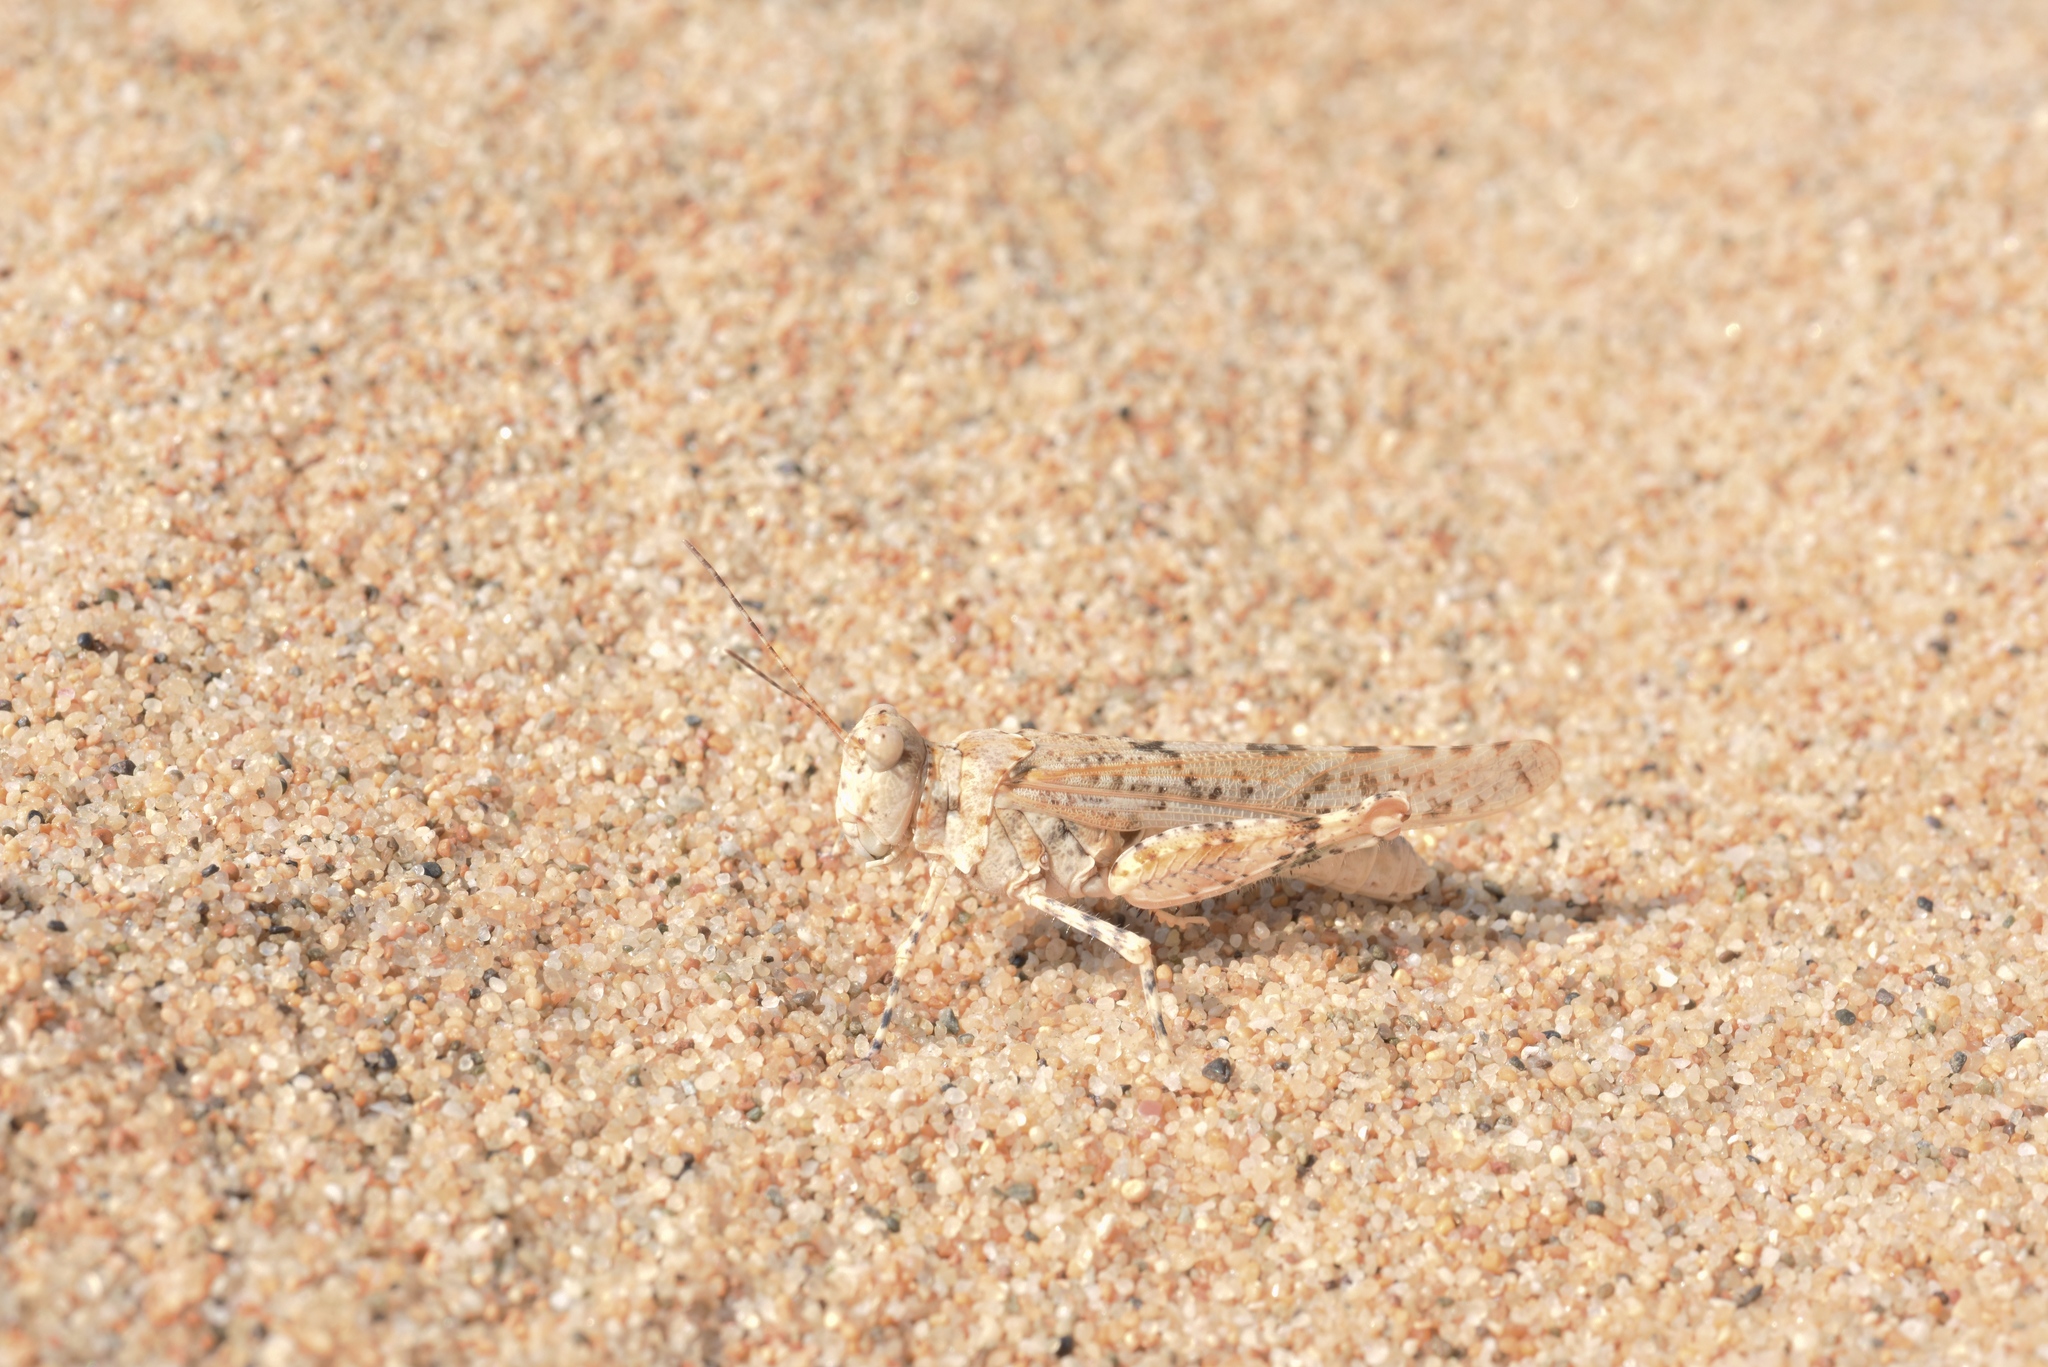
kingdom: Animalia
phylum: Arthropoda
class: Insecta
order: Orthoptera
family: Acrididae
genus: Sphingonotus
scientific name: Sphingonotus candidus
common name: Whitish sand grasshopper
